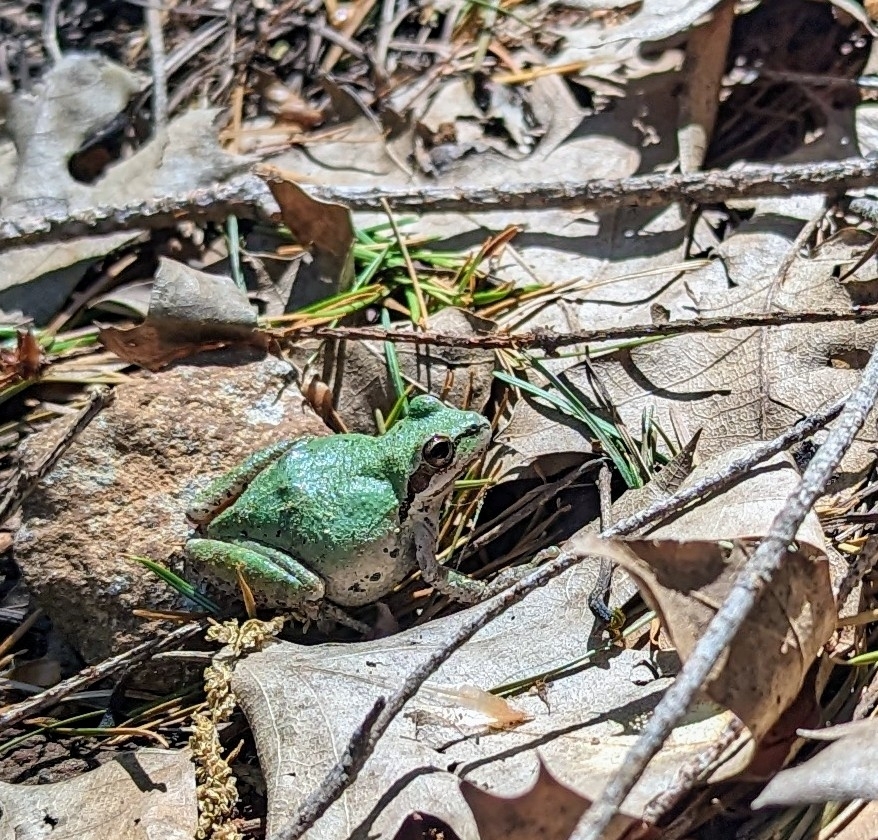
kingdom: Animalia
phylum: Chordata
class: Amphibia
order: Anura
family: Hylidae
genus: Pseudacris
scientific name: Pseudacris regilla
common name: Pacific chorus frog
